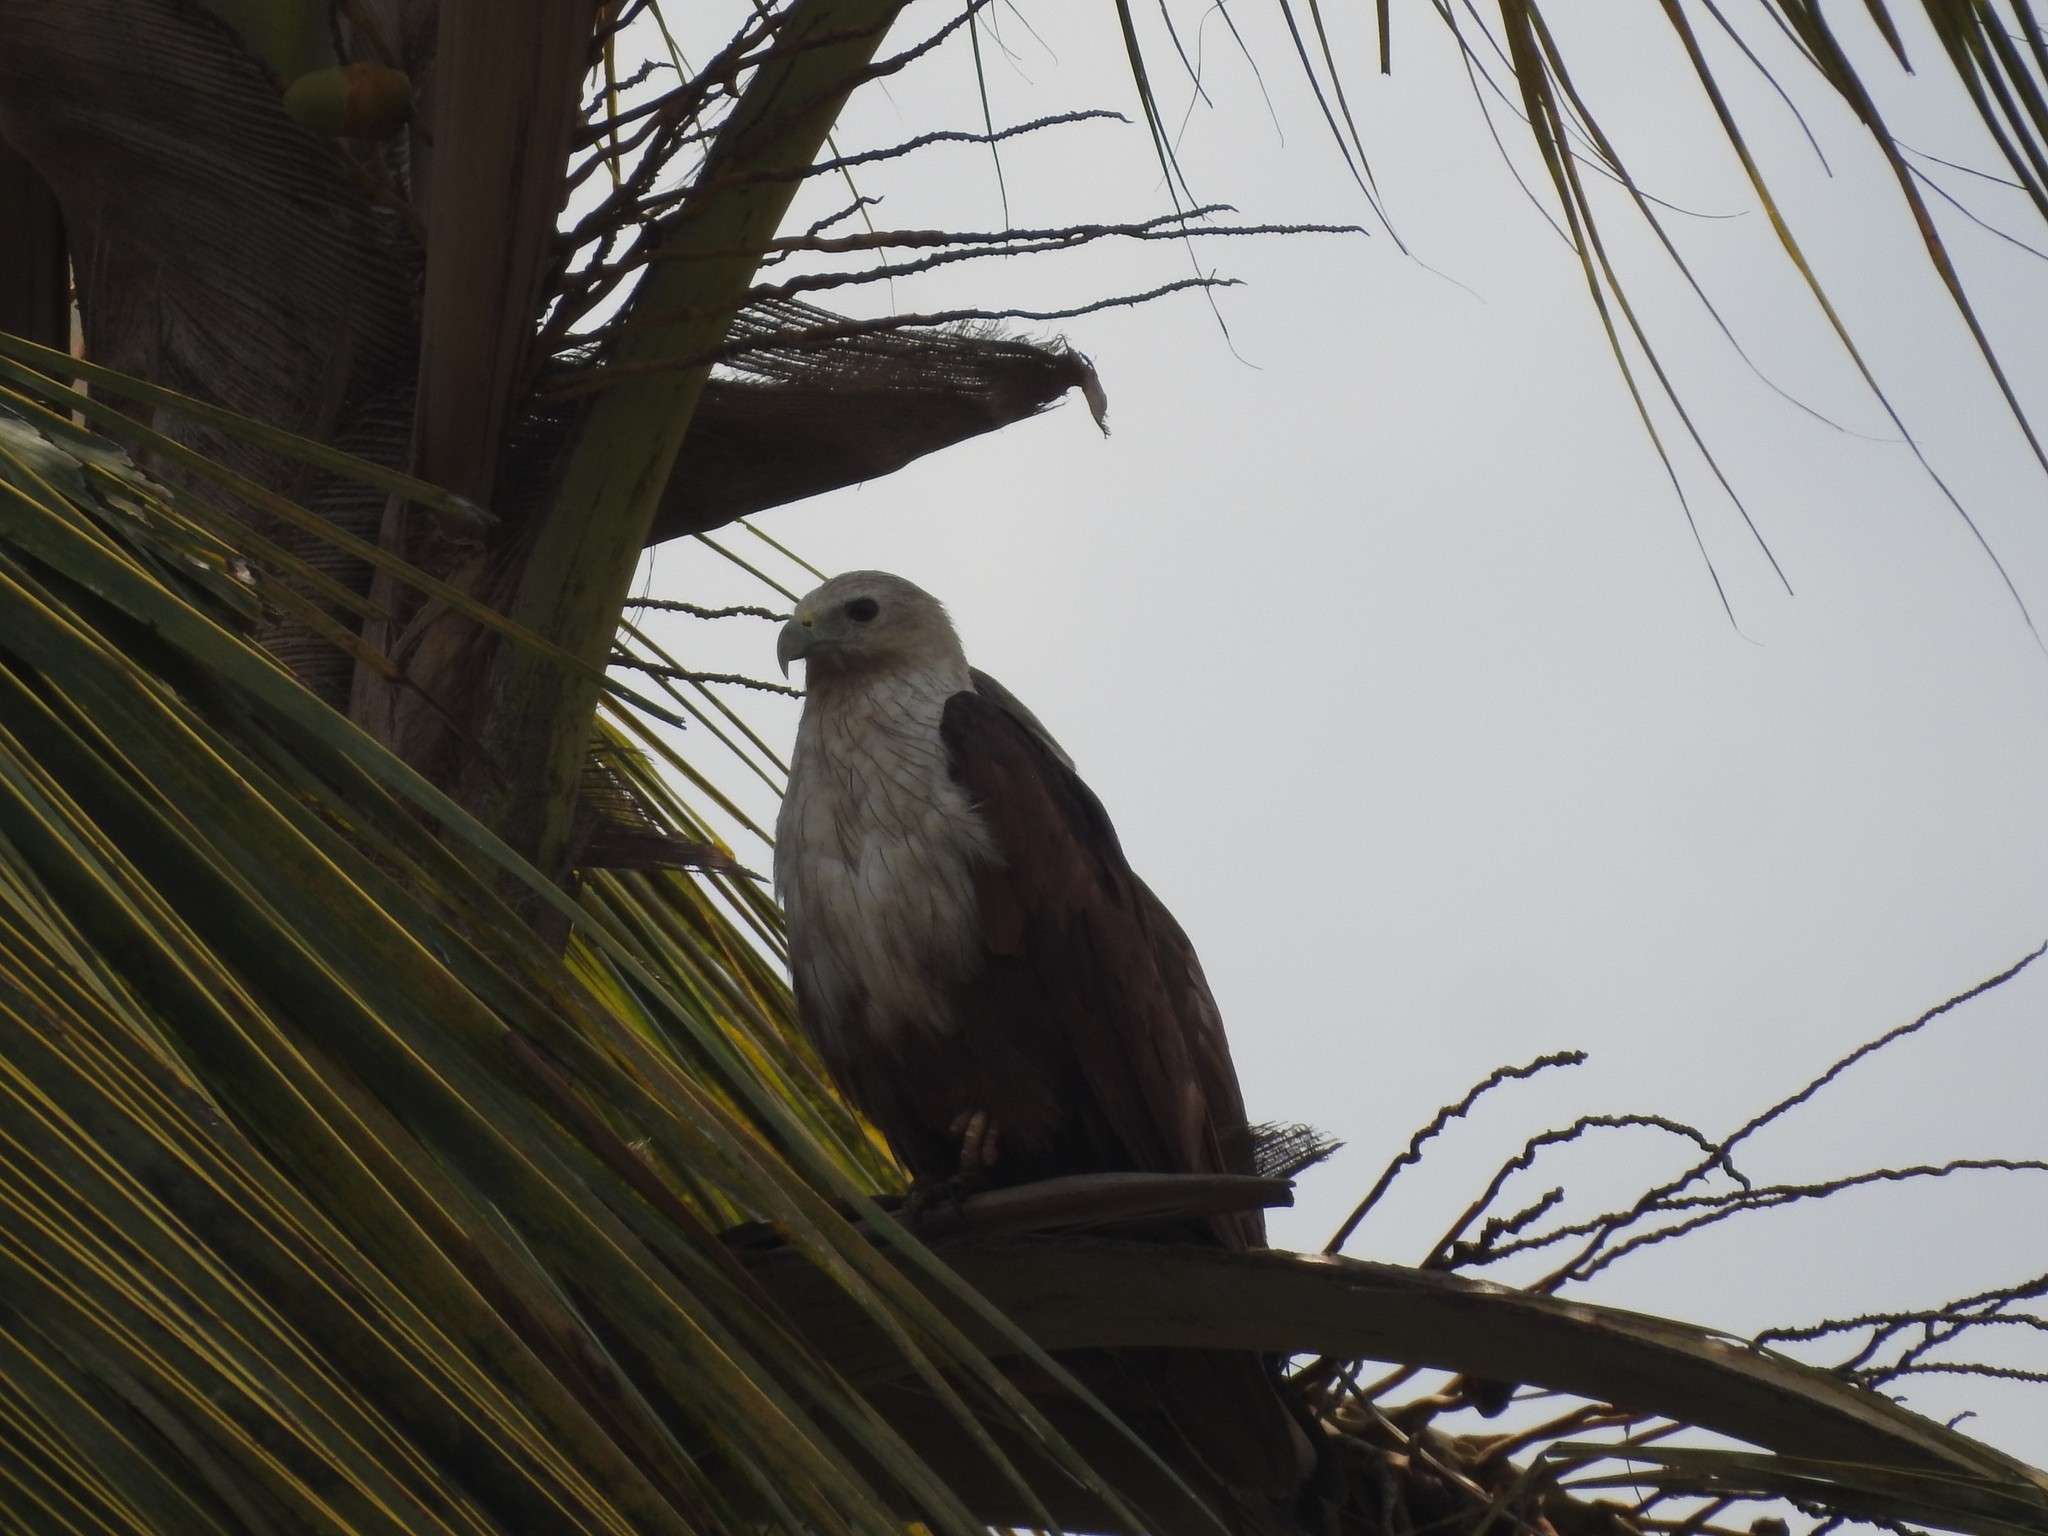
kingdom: Animalia
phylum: Chordata
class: Aves
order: Accipitriformes
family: Accipitridae
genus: Haliastur
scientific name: Haliastur indus
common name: Brahminy kite
